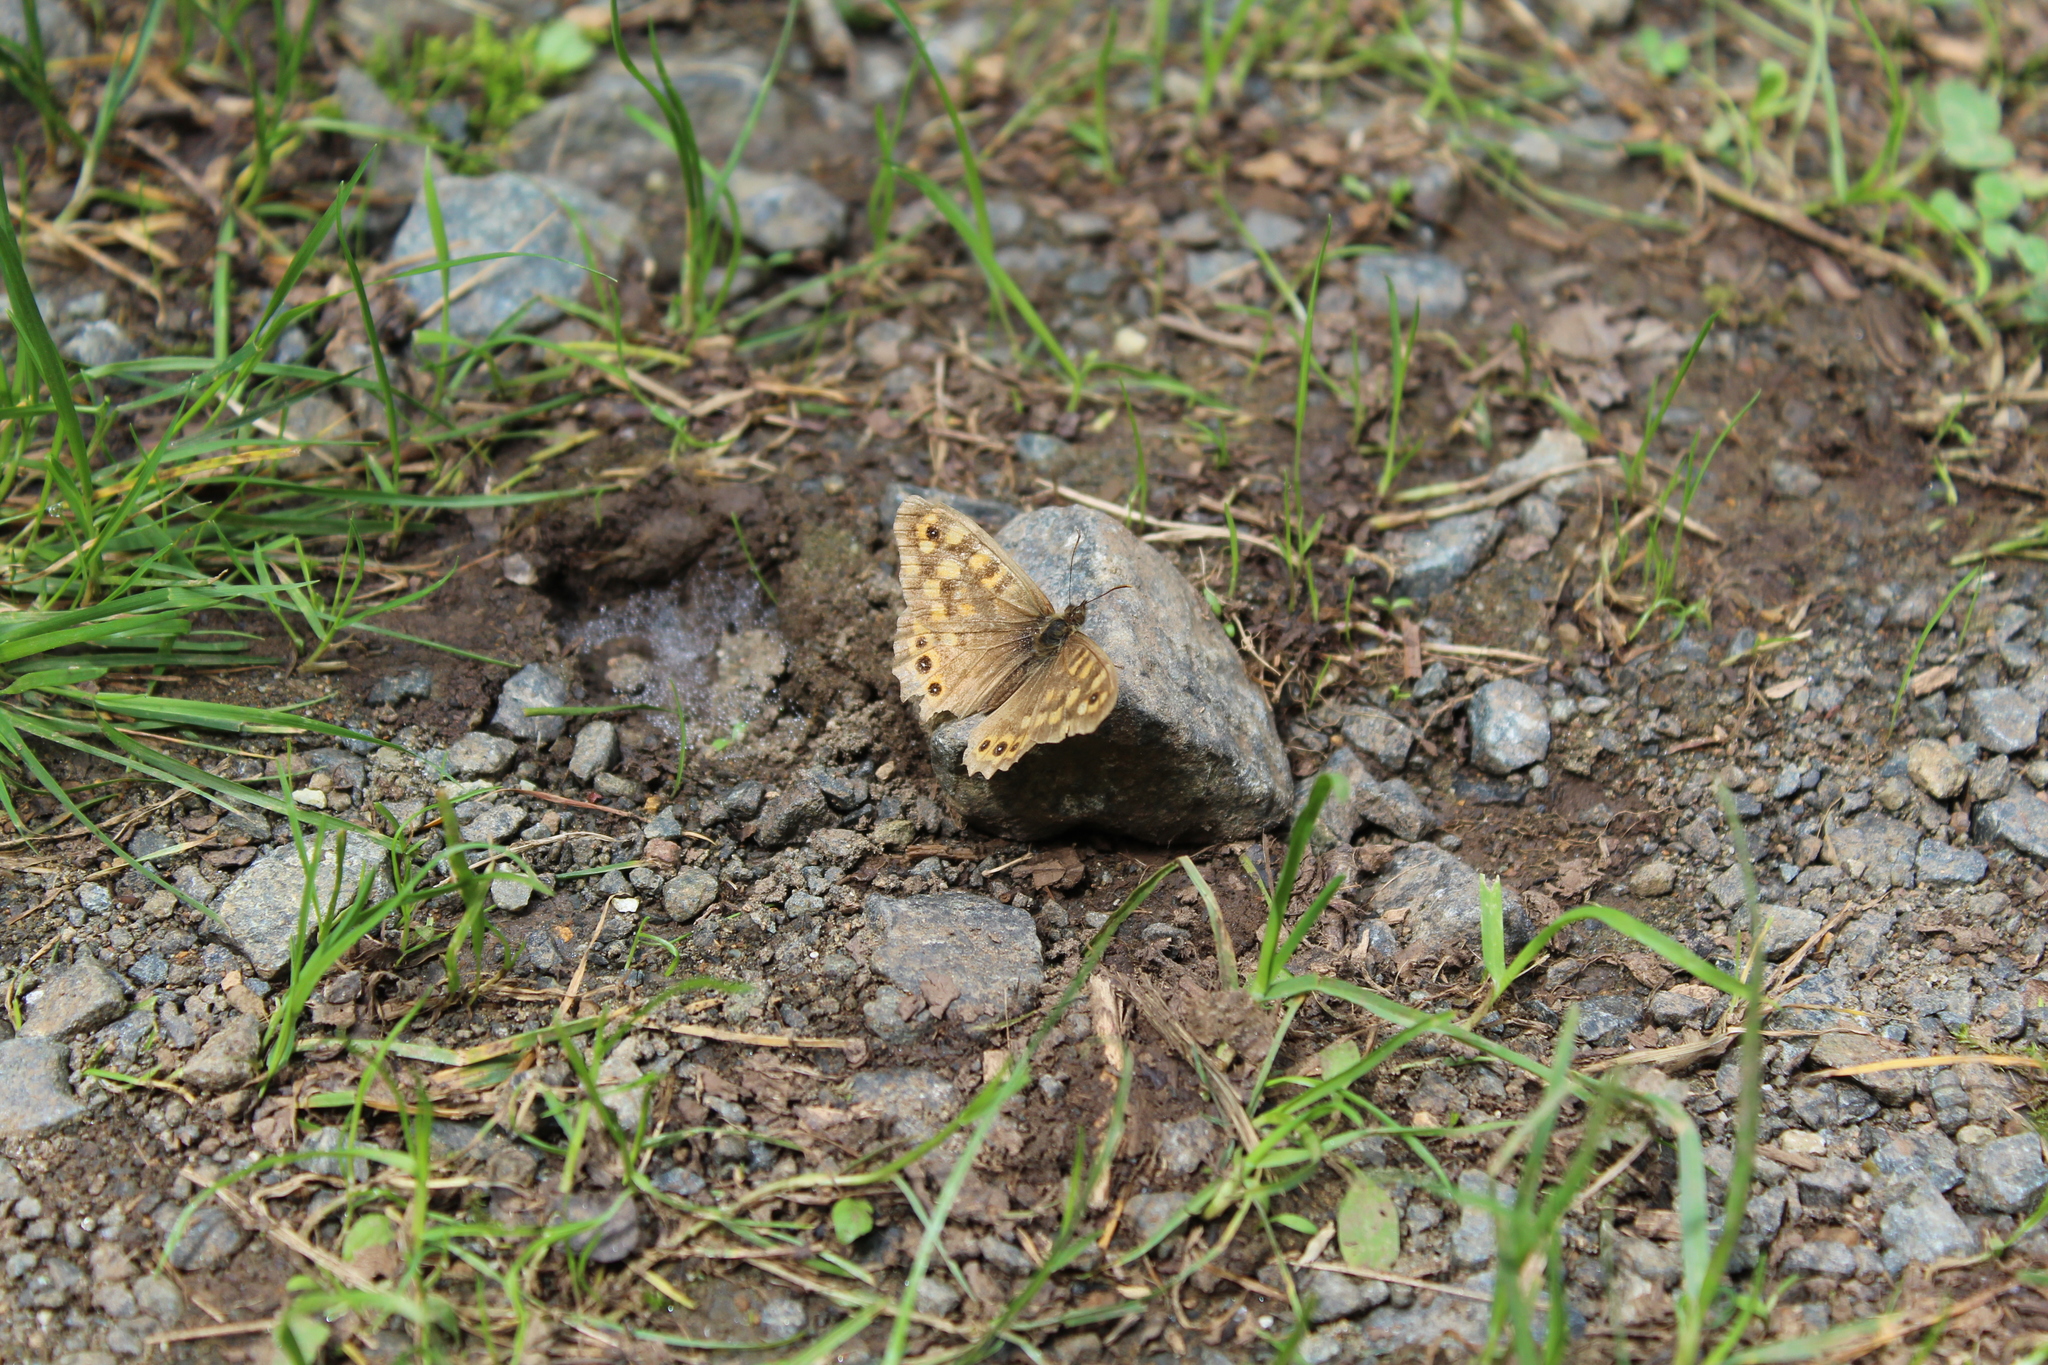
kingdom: Animalia
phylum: Arthropoda
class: Insecta
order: Lepidoptera
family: Nymphalidae
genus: Pararge
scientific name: Pararge aegeria
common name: Speckled wood
